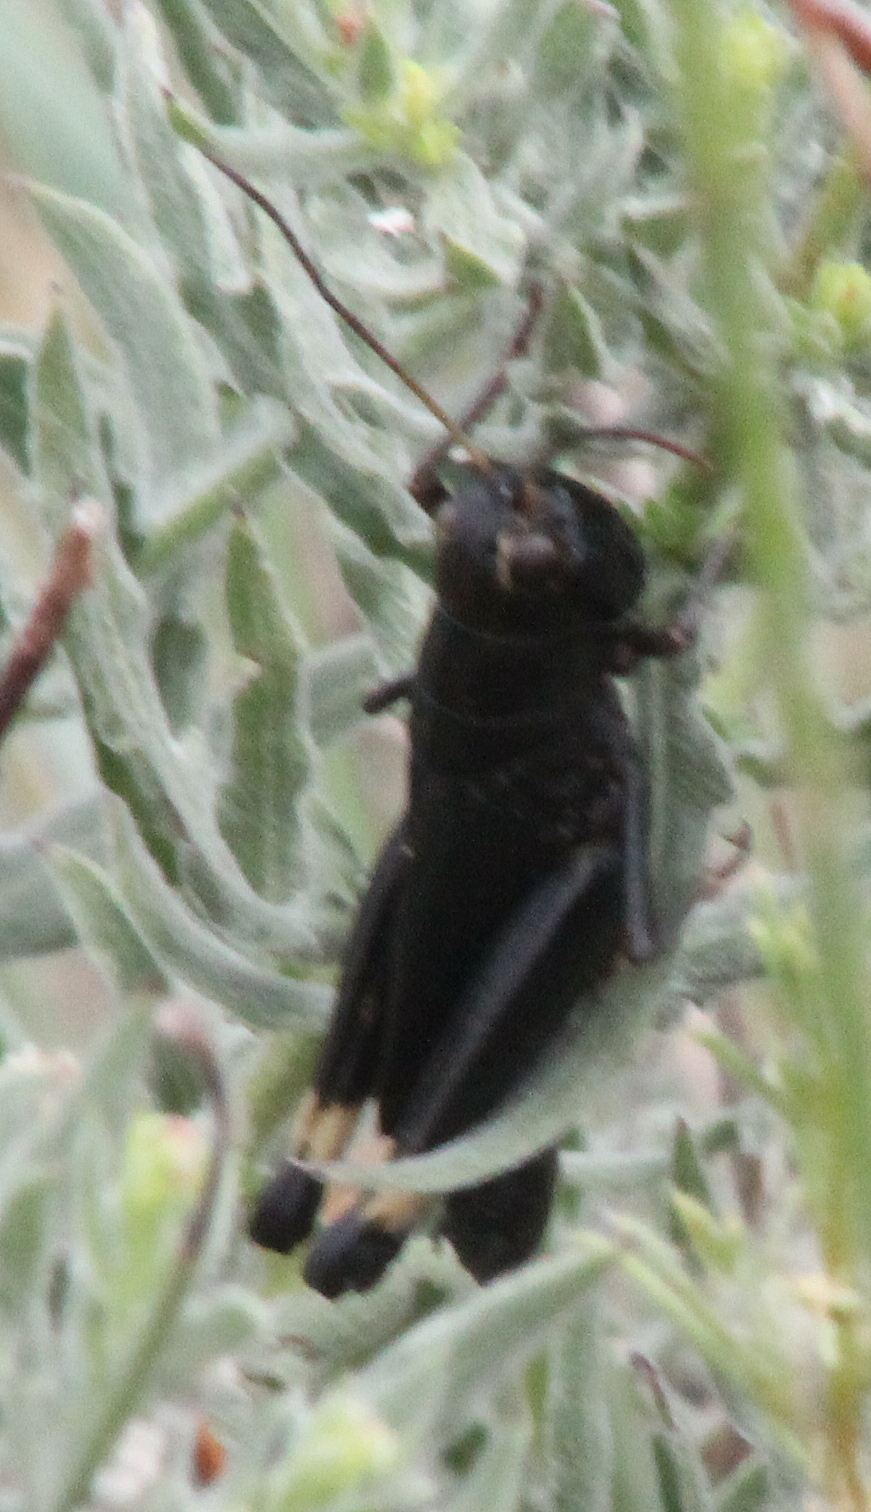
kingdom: Animalia
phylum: Arthropoda
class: Insecta
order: Orthoptera
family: Acrididae
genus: Boopedon
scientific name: Boopedon nubilum
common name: Ebony grasshopper
